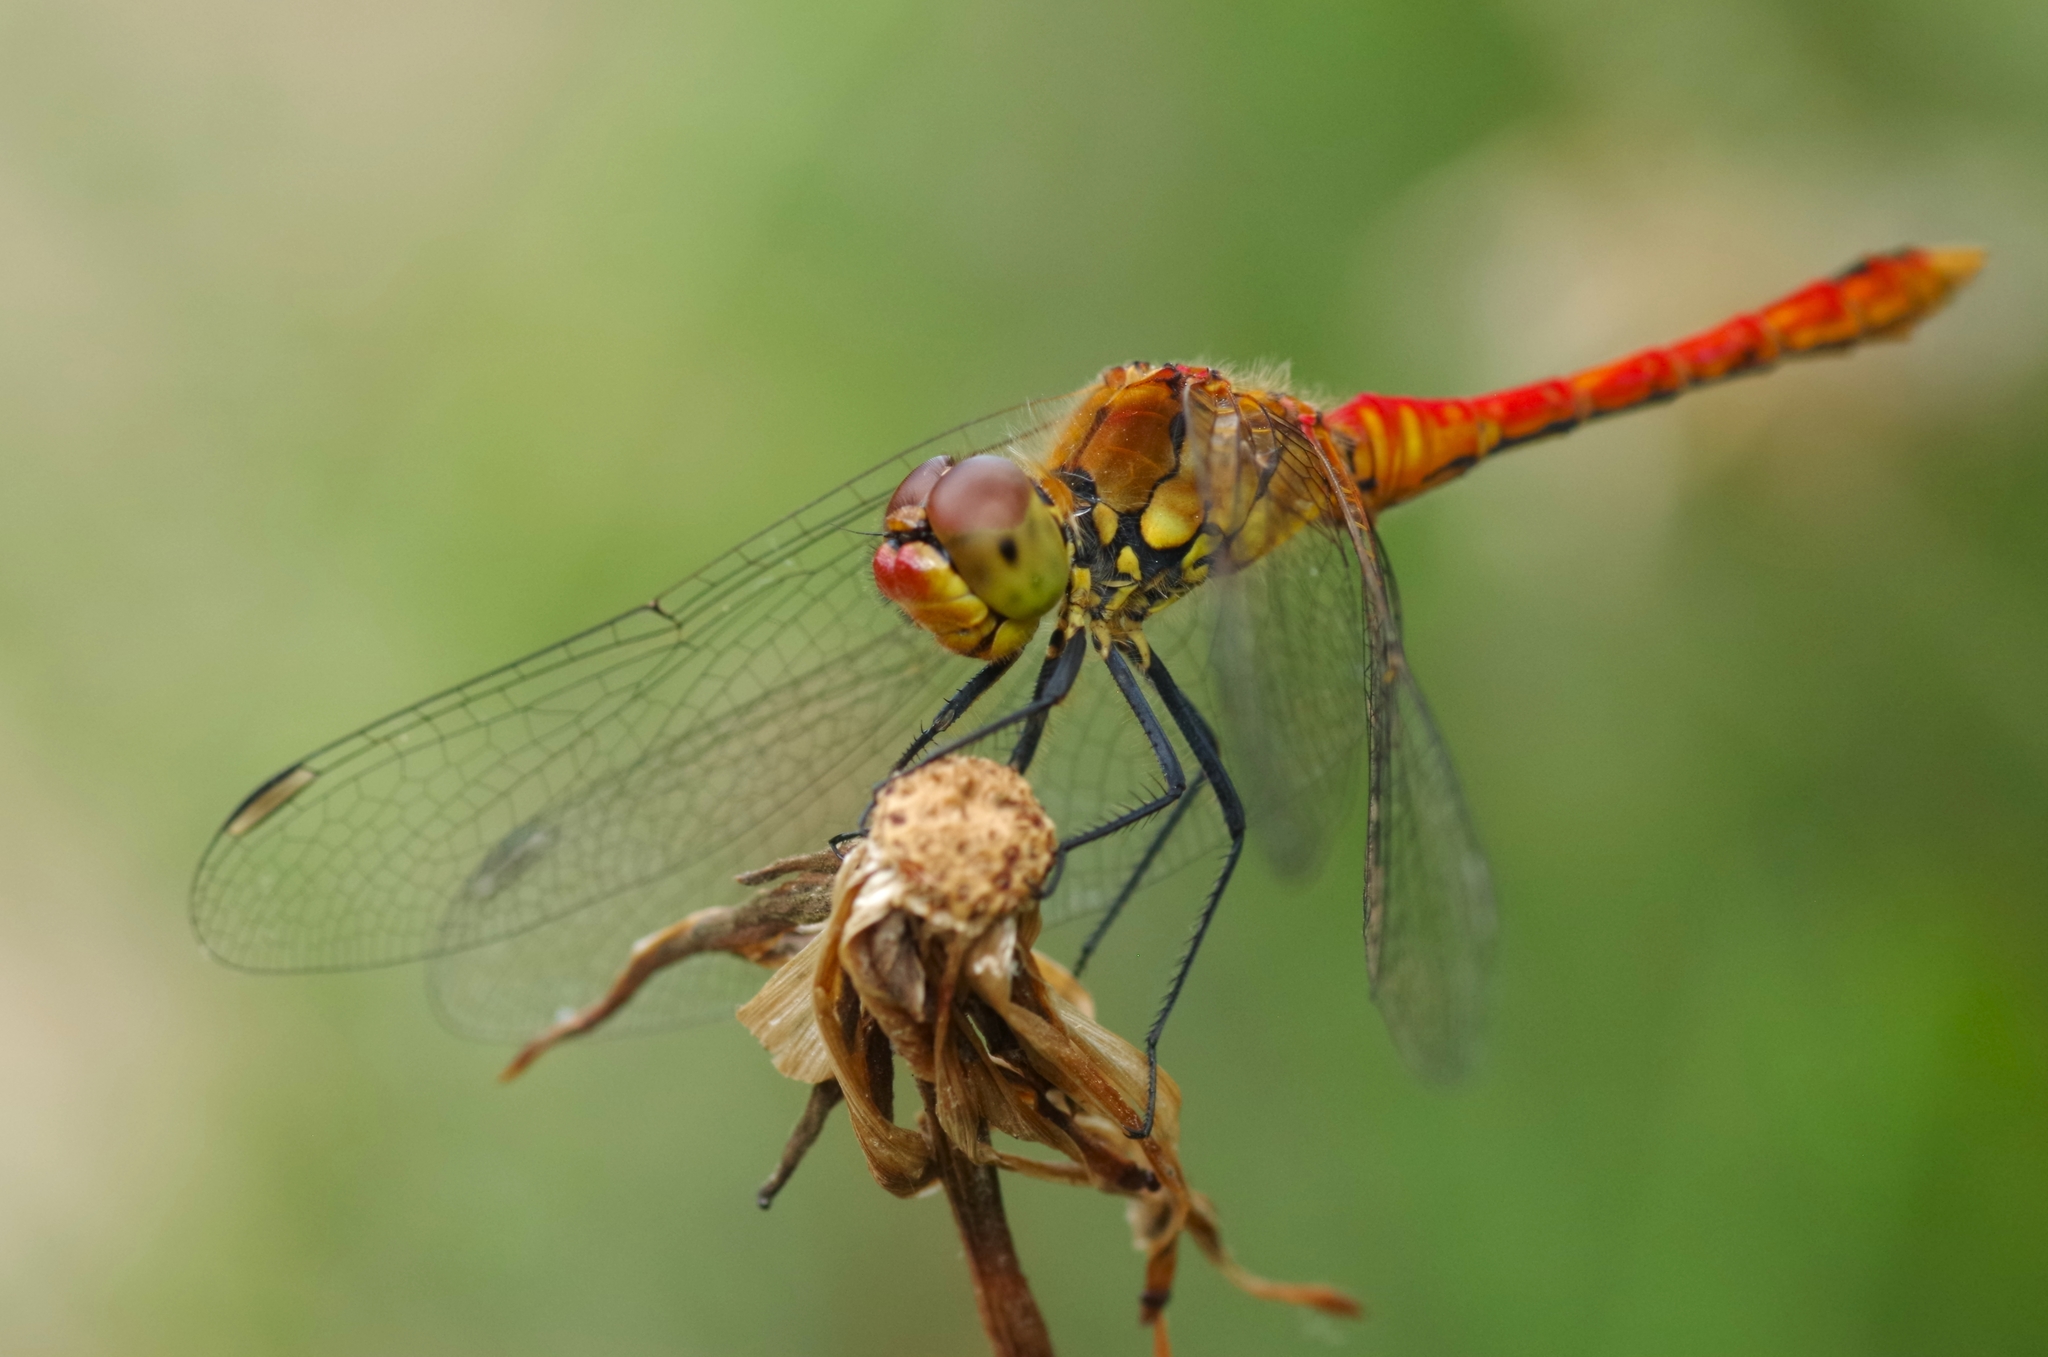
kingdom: Animalia
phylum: Arthropoda
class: Insecta
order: Odonata
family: Libellulidae
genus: Sympetrum
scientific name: Sympetrum sanguineum
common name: Ruddy darter
